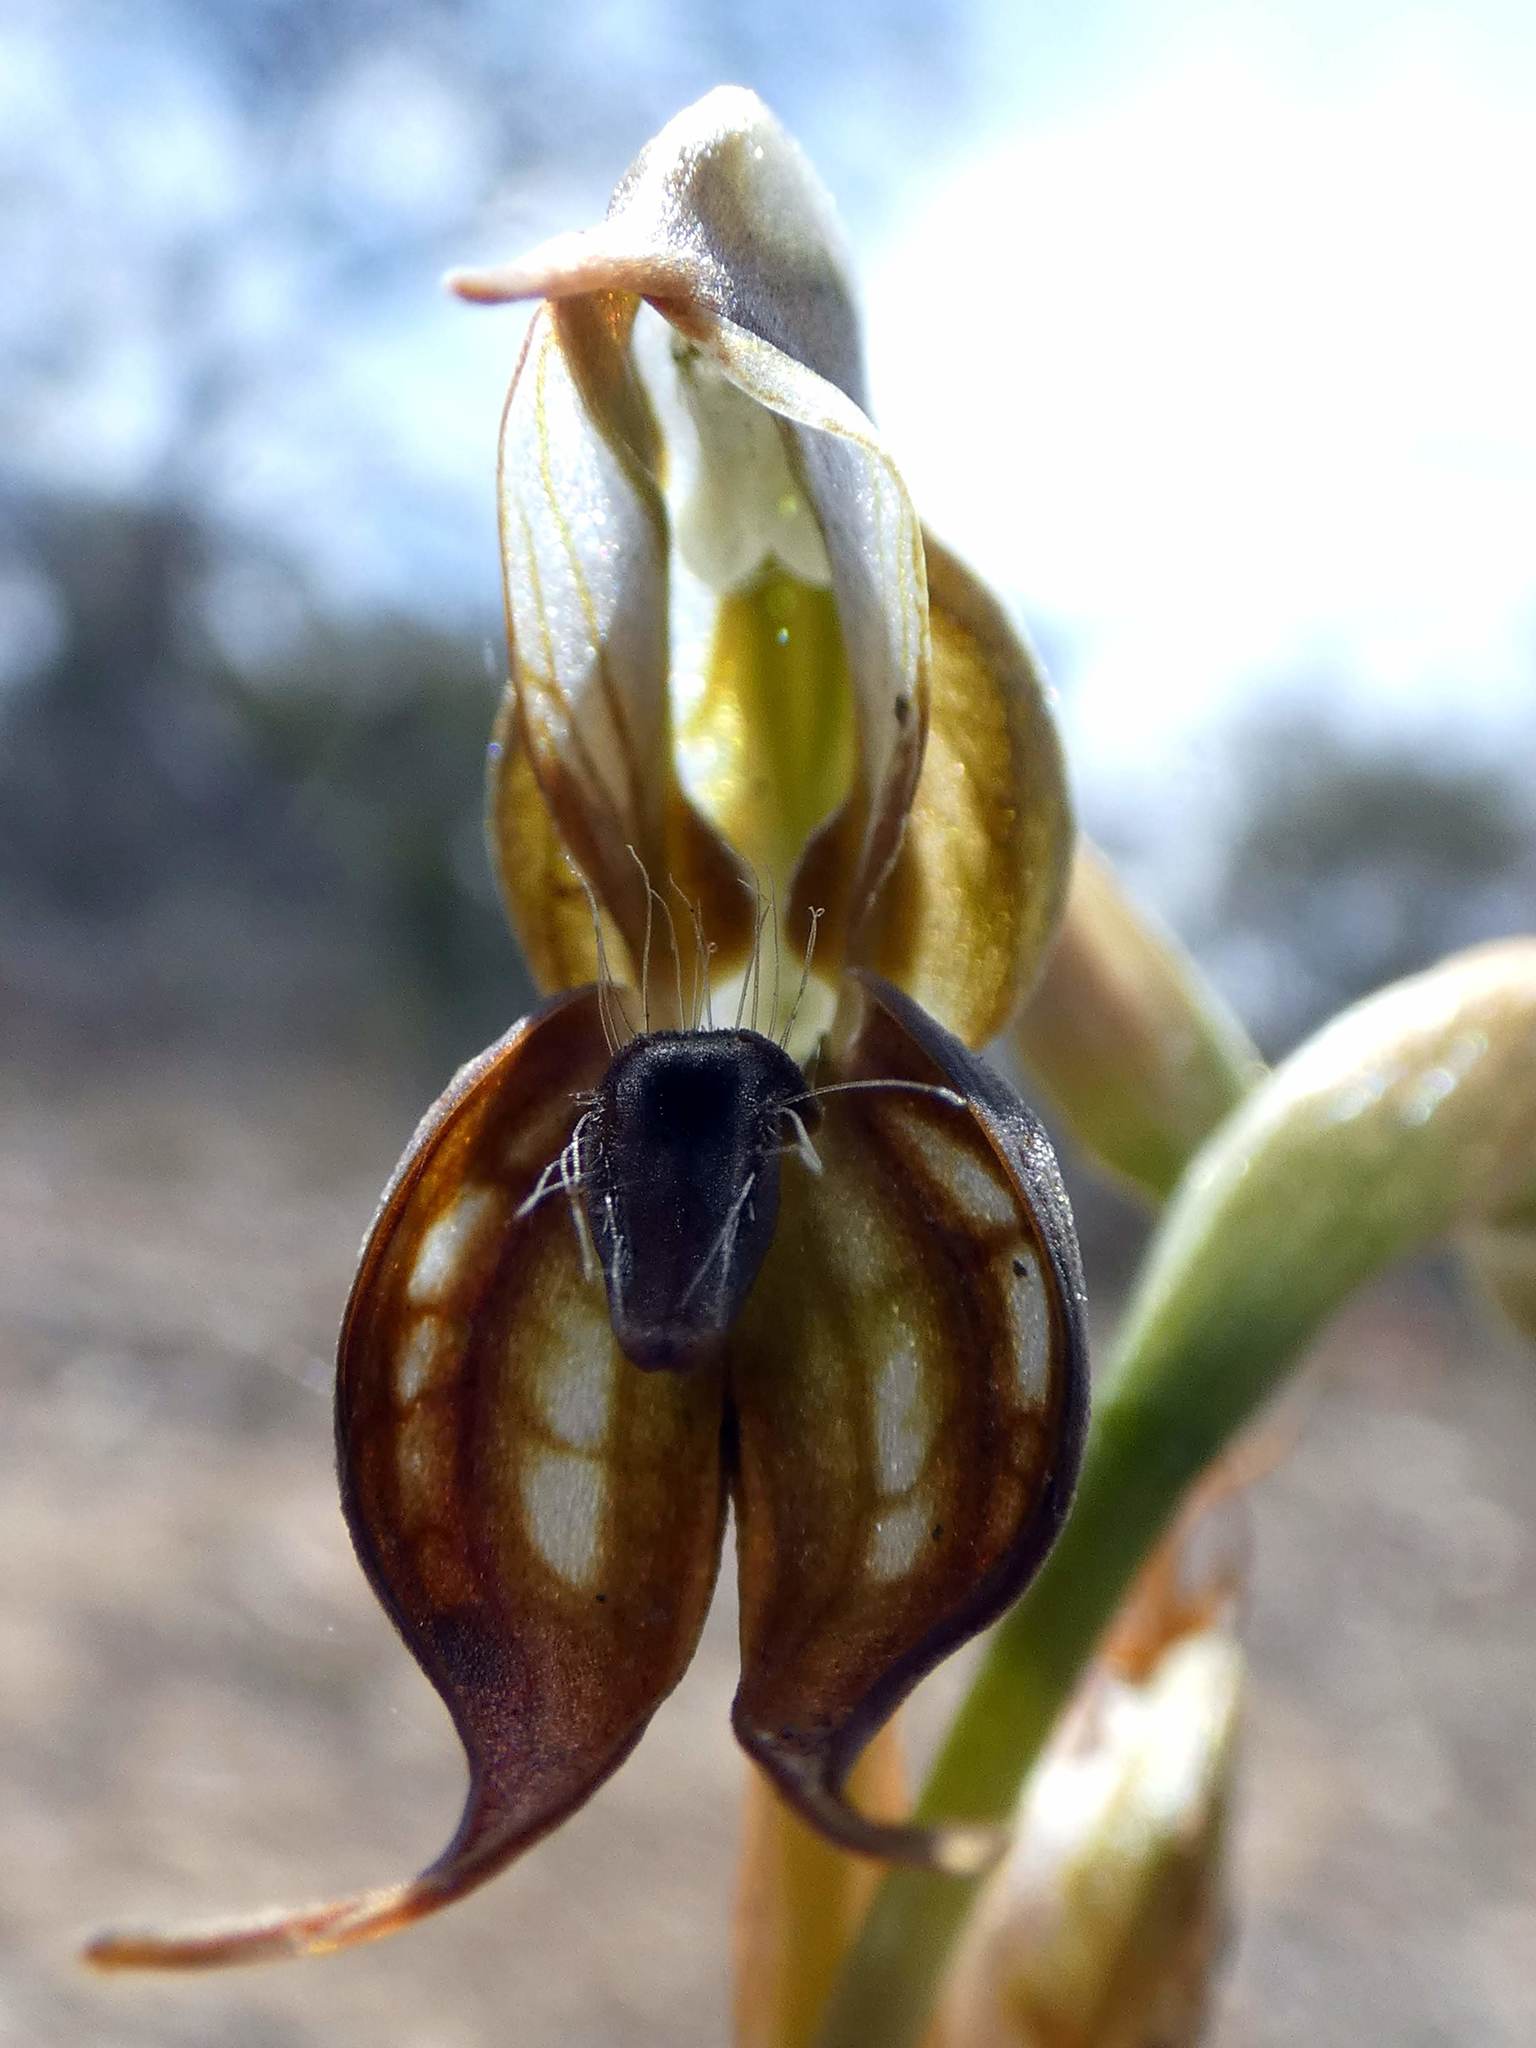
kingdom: Plantae
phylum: Tracheophyta
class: Liliopsida
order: Asparagales
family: Orchidaceae
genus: Pterostylis
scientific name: Pterostylis hamata
